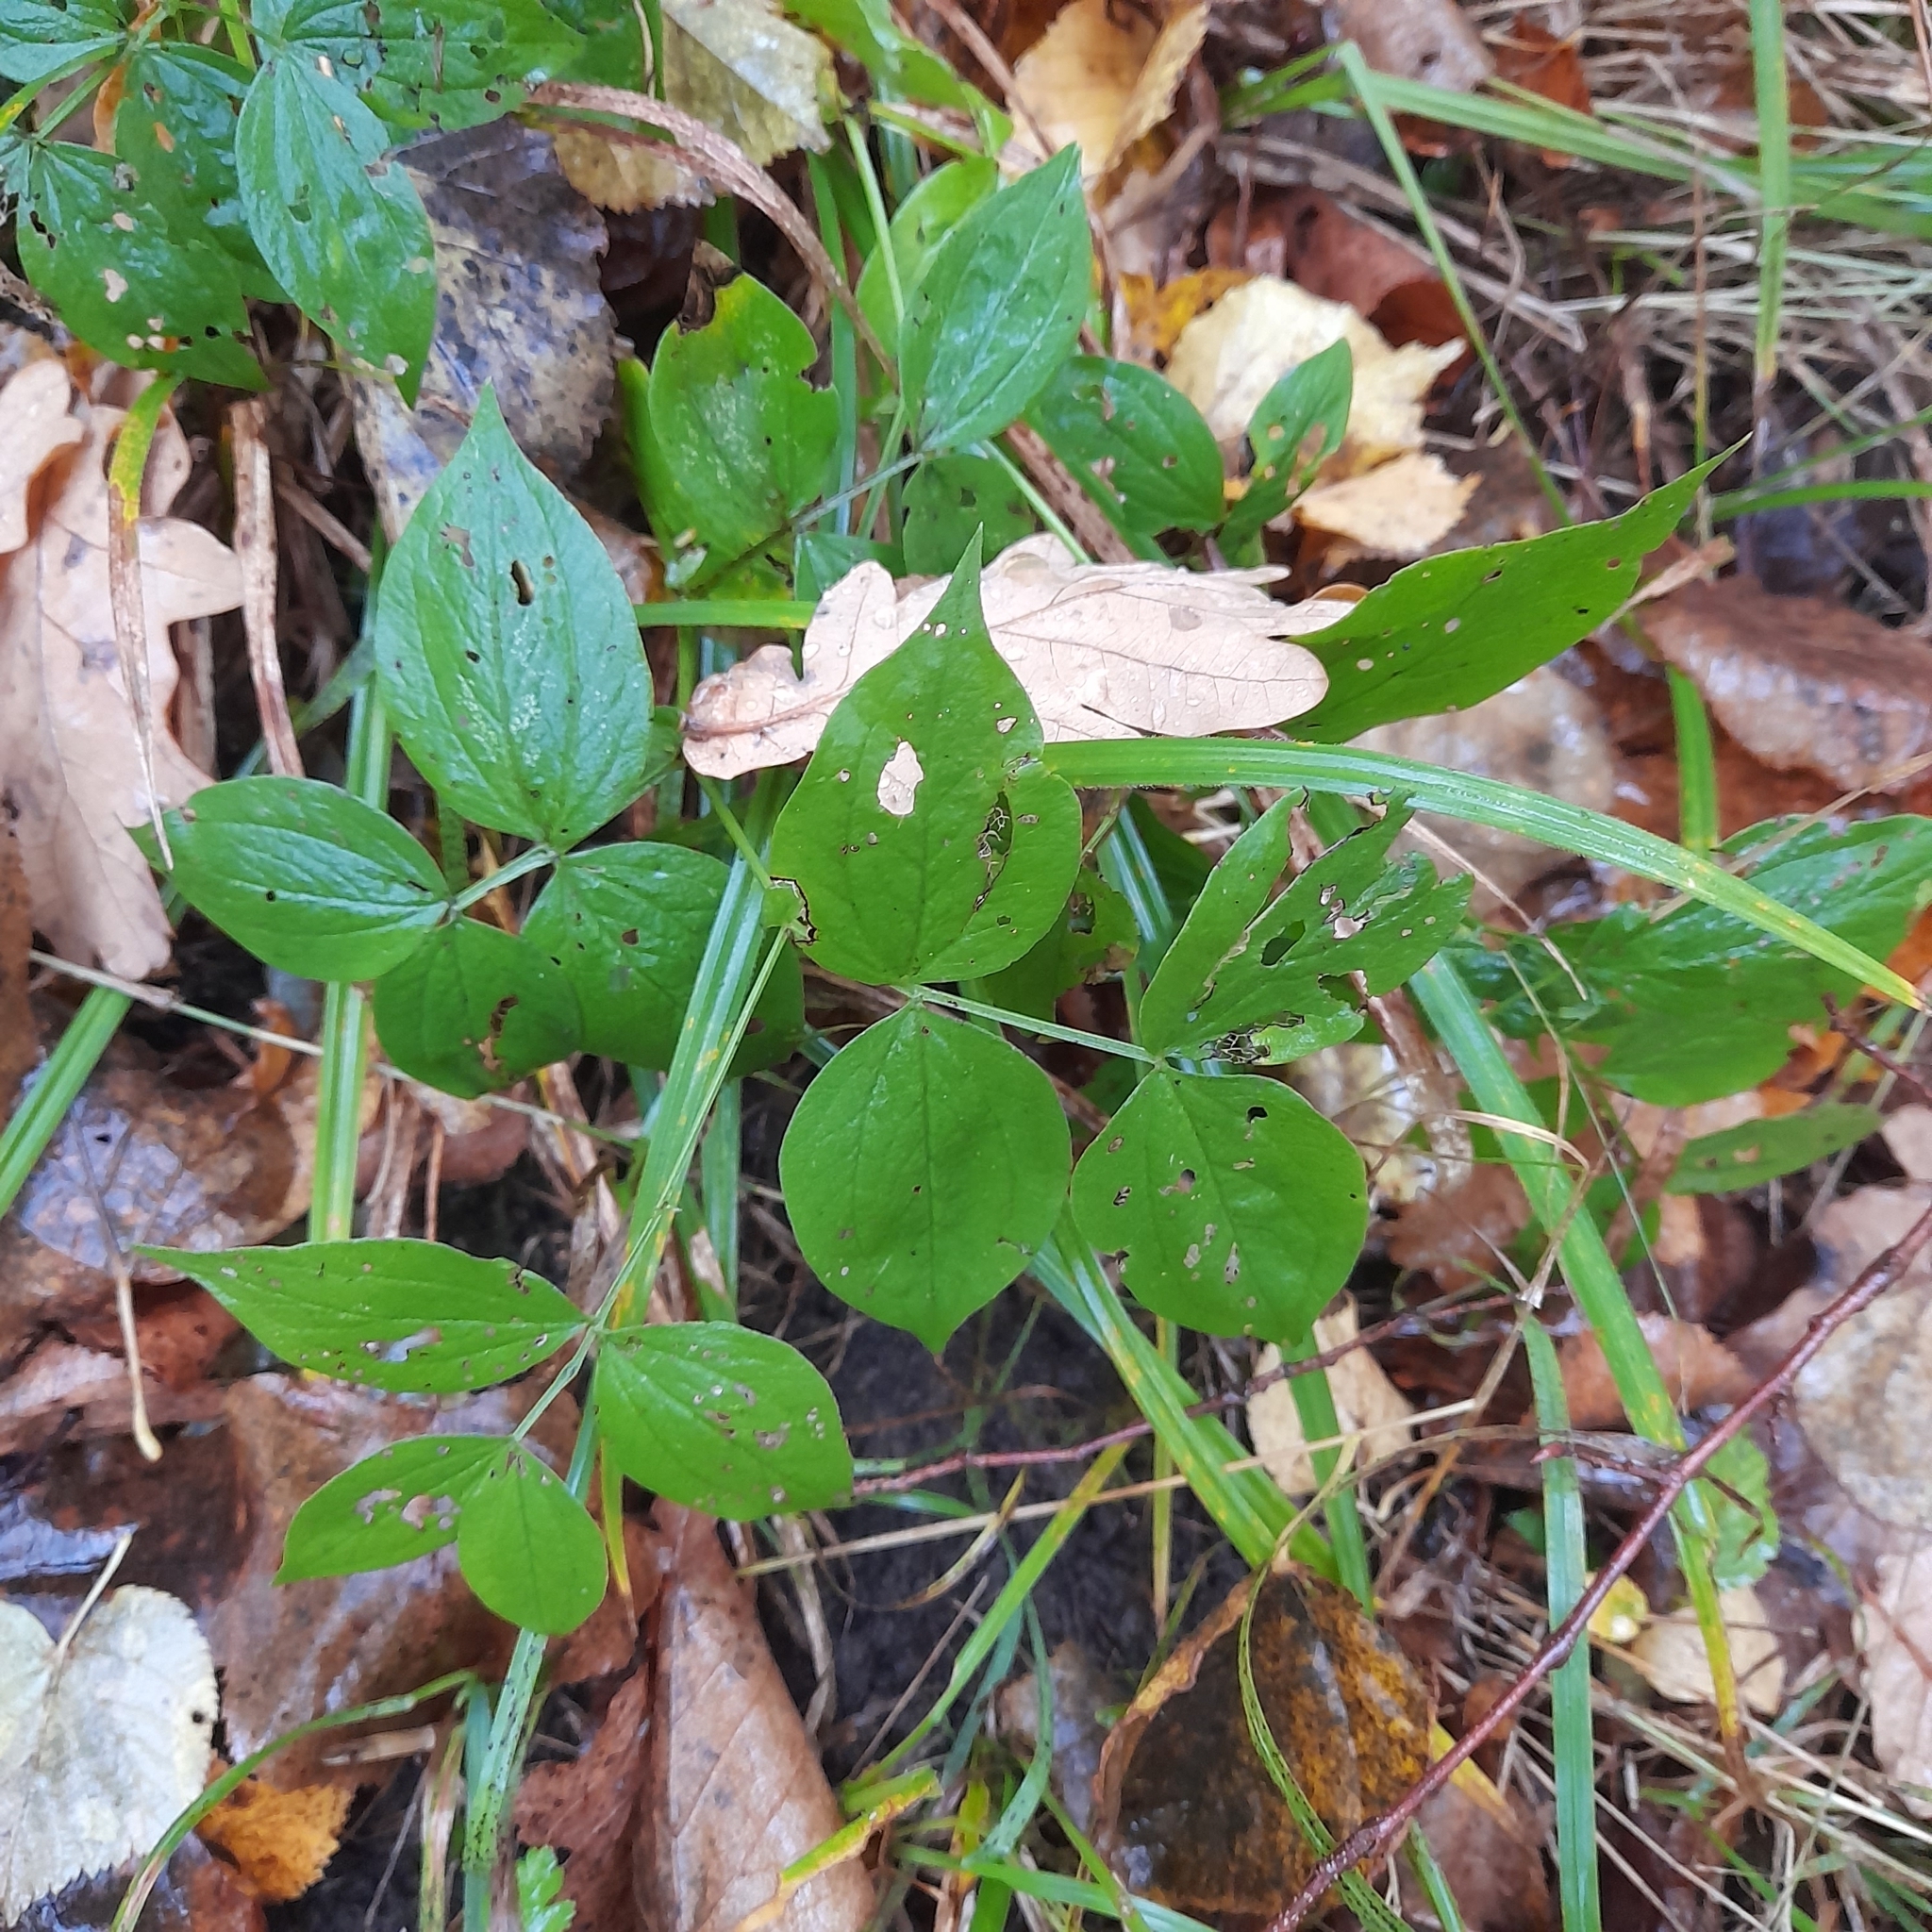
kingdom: Plantae
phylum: Tracheophyta
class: Magnoliopsida
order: Fabales
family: Fabaceae
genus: Lathyrus
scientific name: Lathyrus vernus
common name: Spring pea
